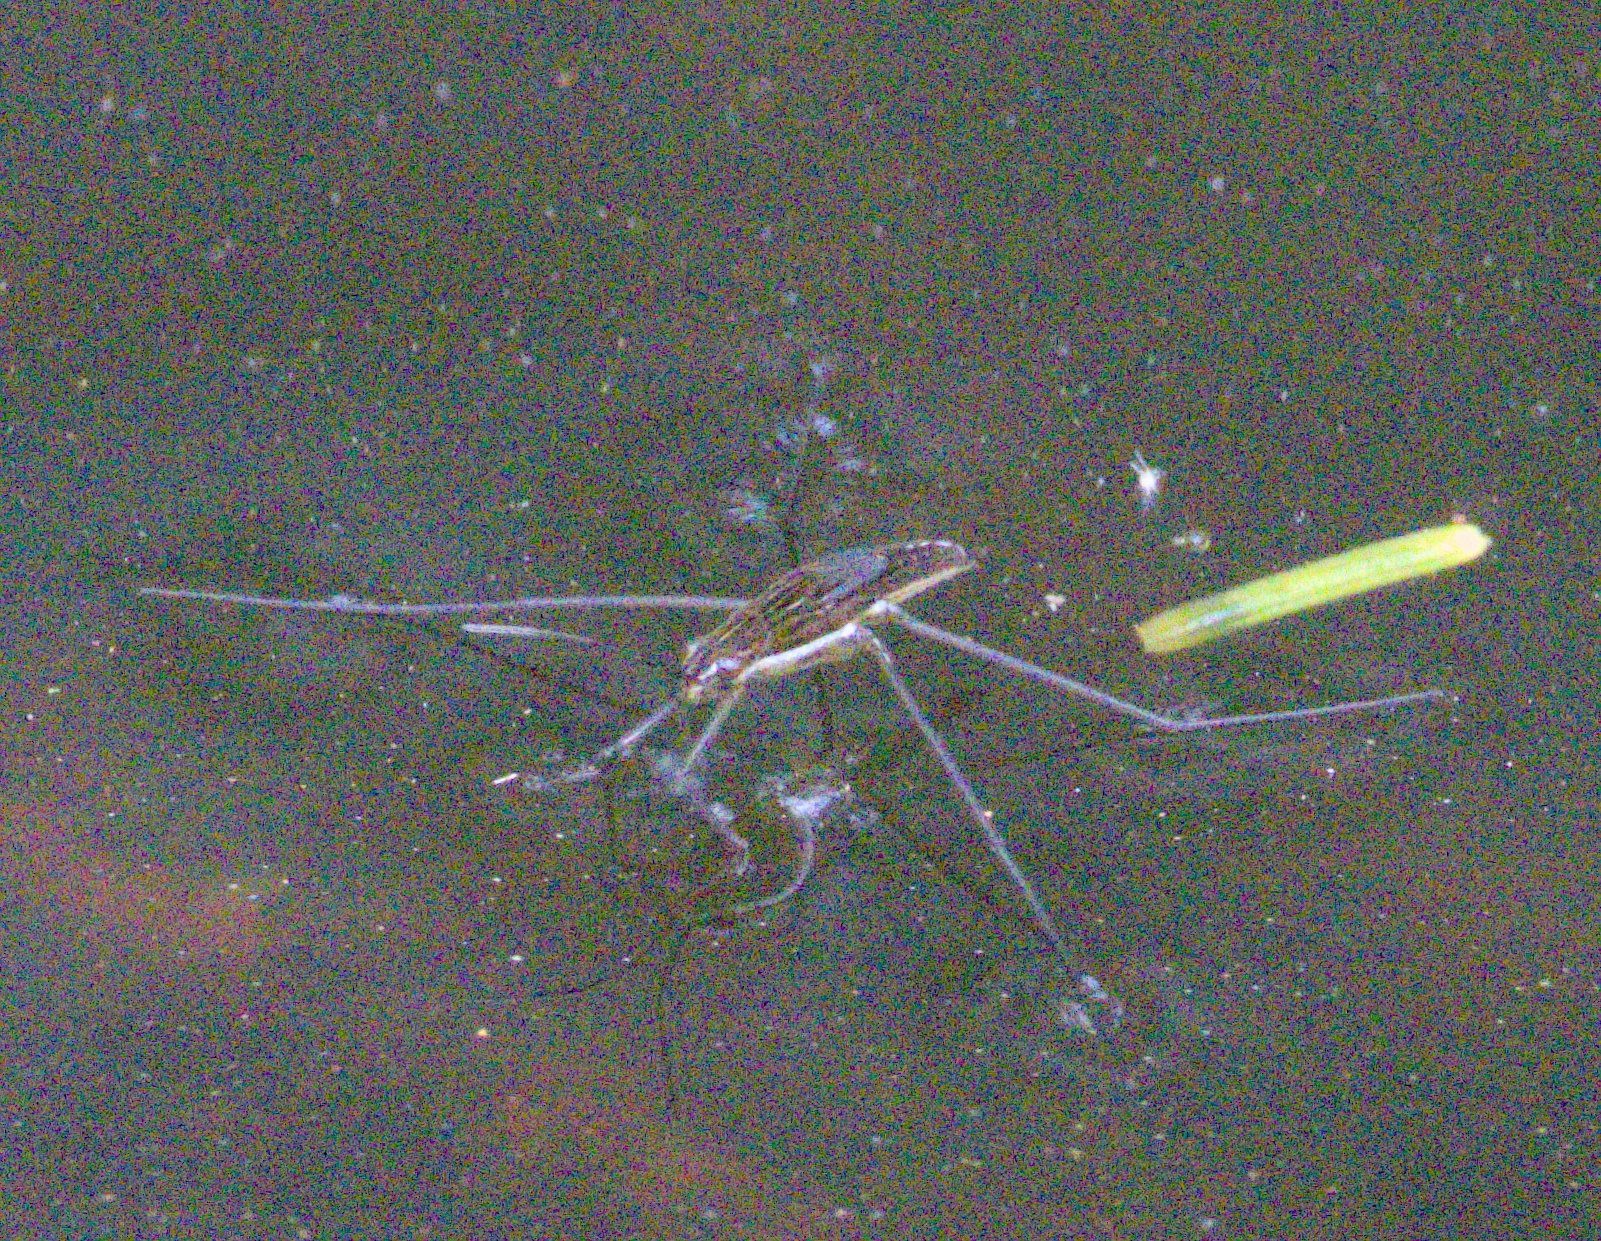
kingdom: Animalia
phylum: Arthropoda
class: Insecta
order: Hemiptera
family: Gerridae
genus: Limnoporus
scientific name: Limnoporus dissortis
